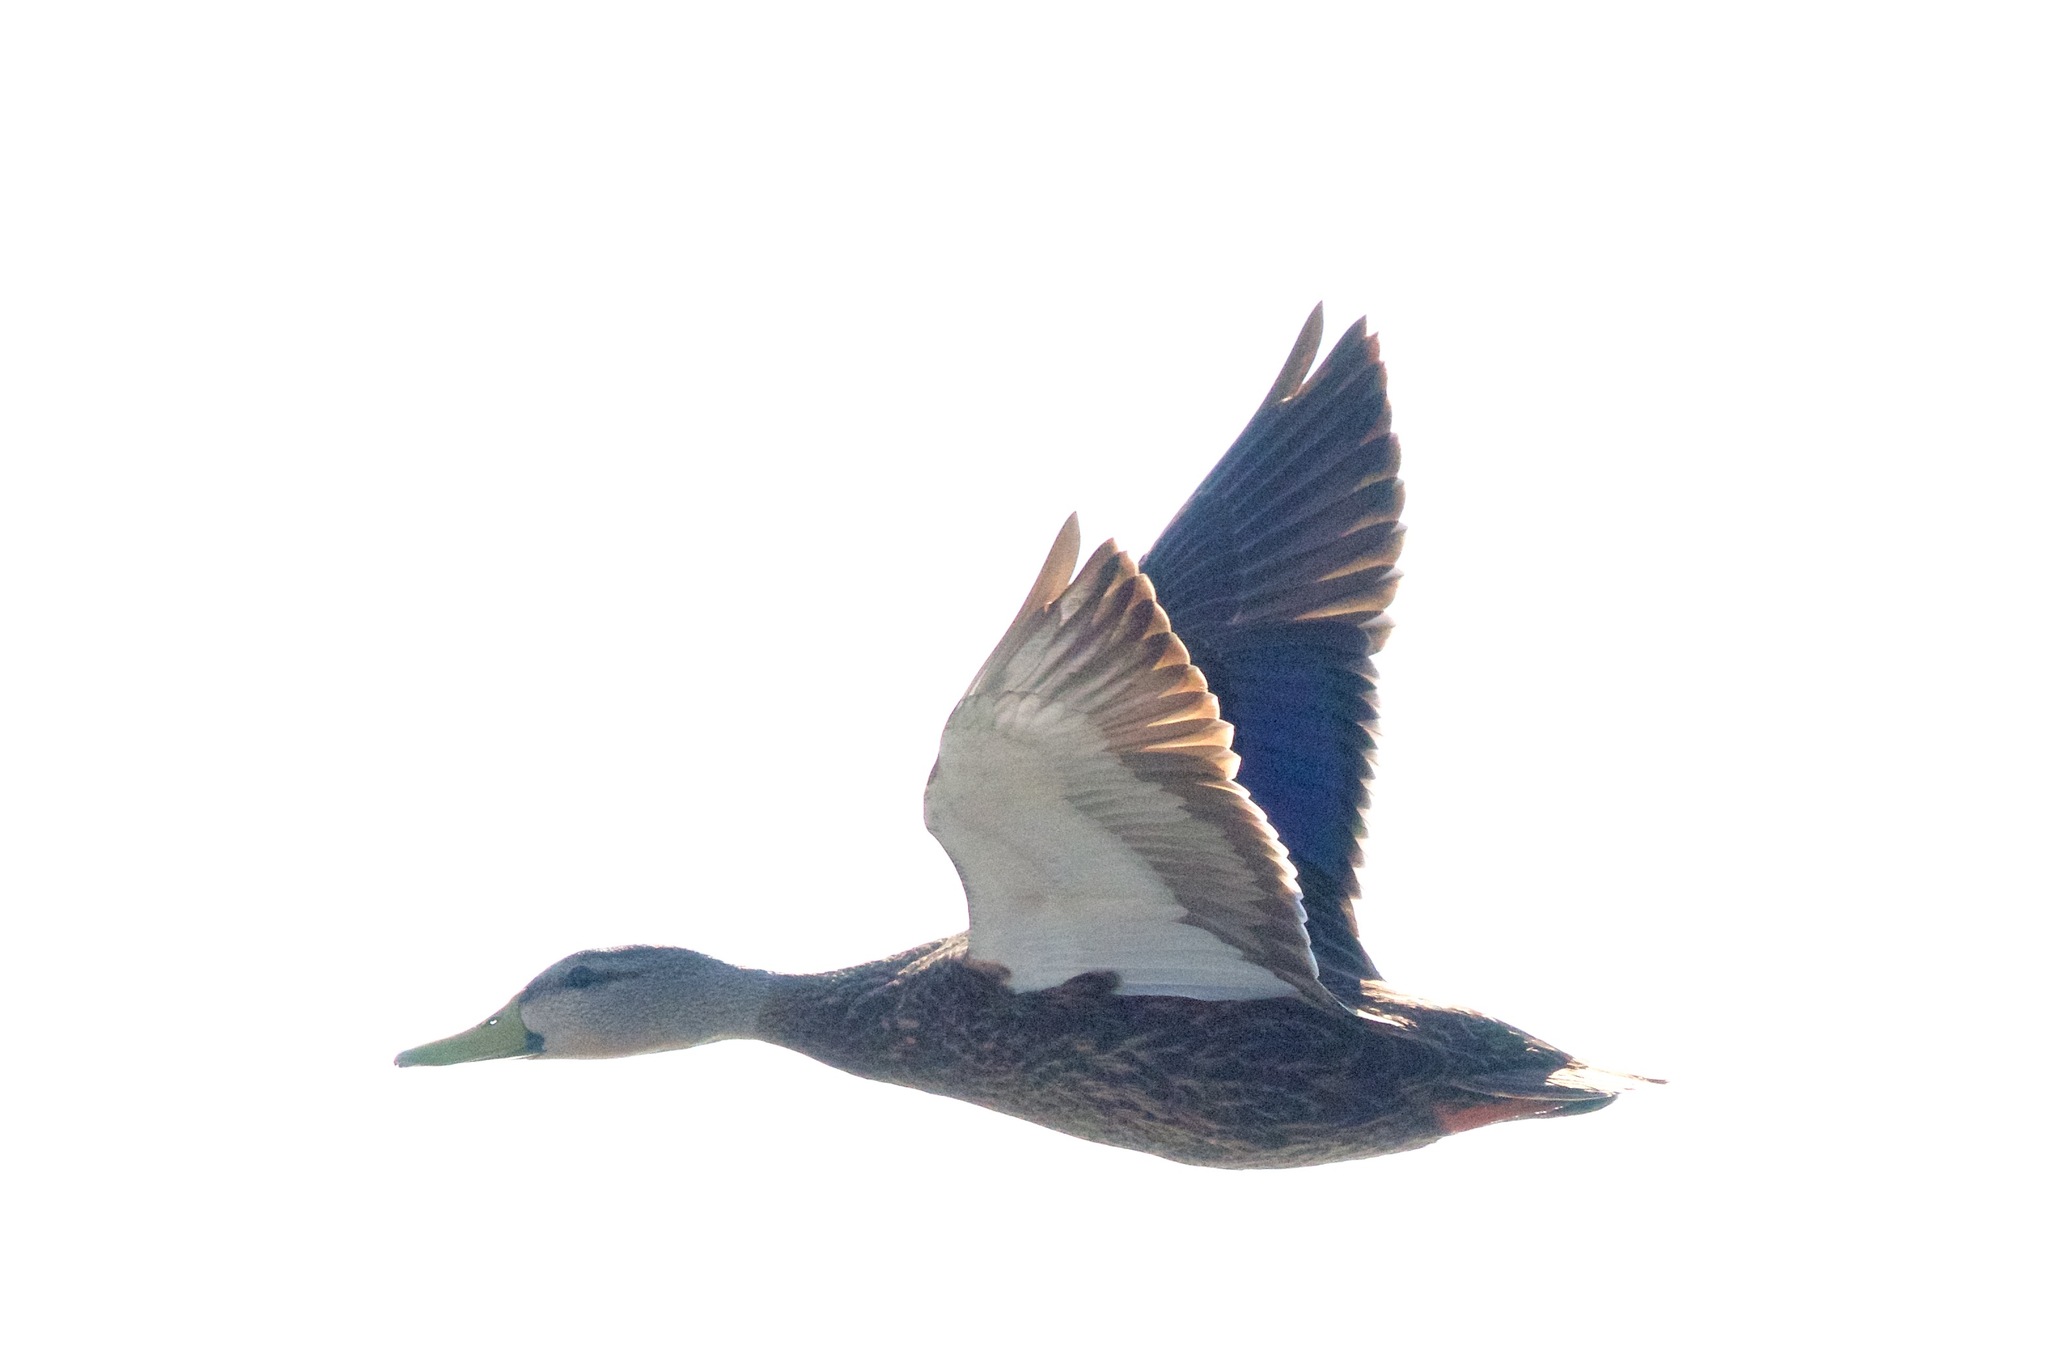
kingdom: Animalia
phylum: Chordata
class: Aves
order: Anseriformes
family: Anatidae
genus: Anas
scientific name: Anas fulvigula
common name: Mottled duck
